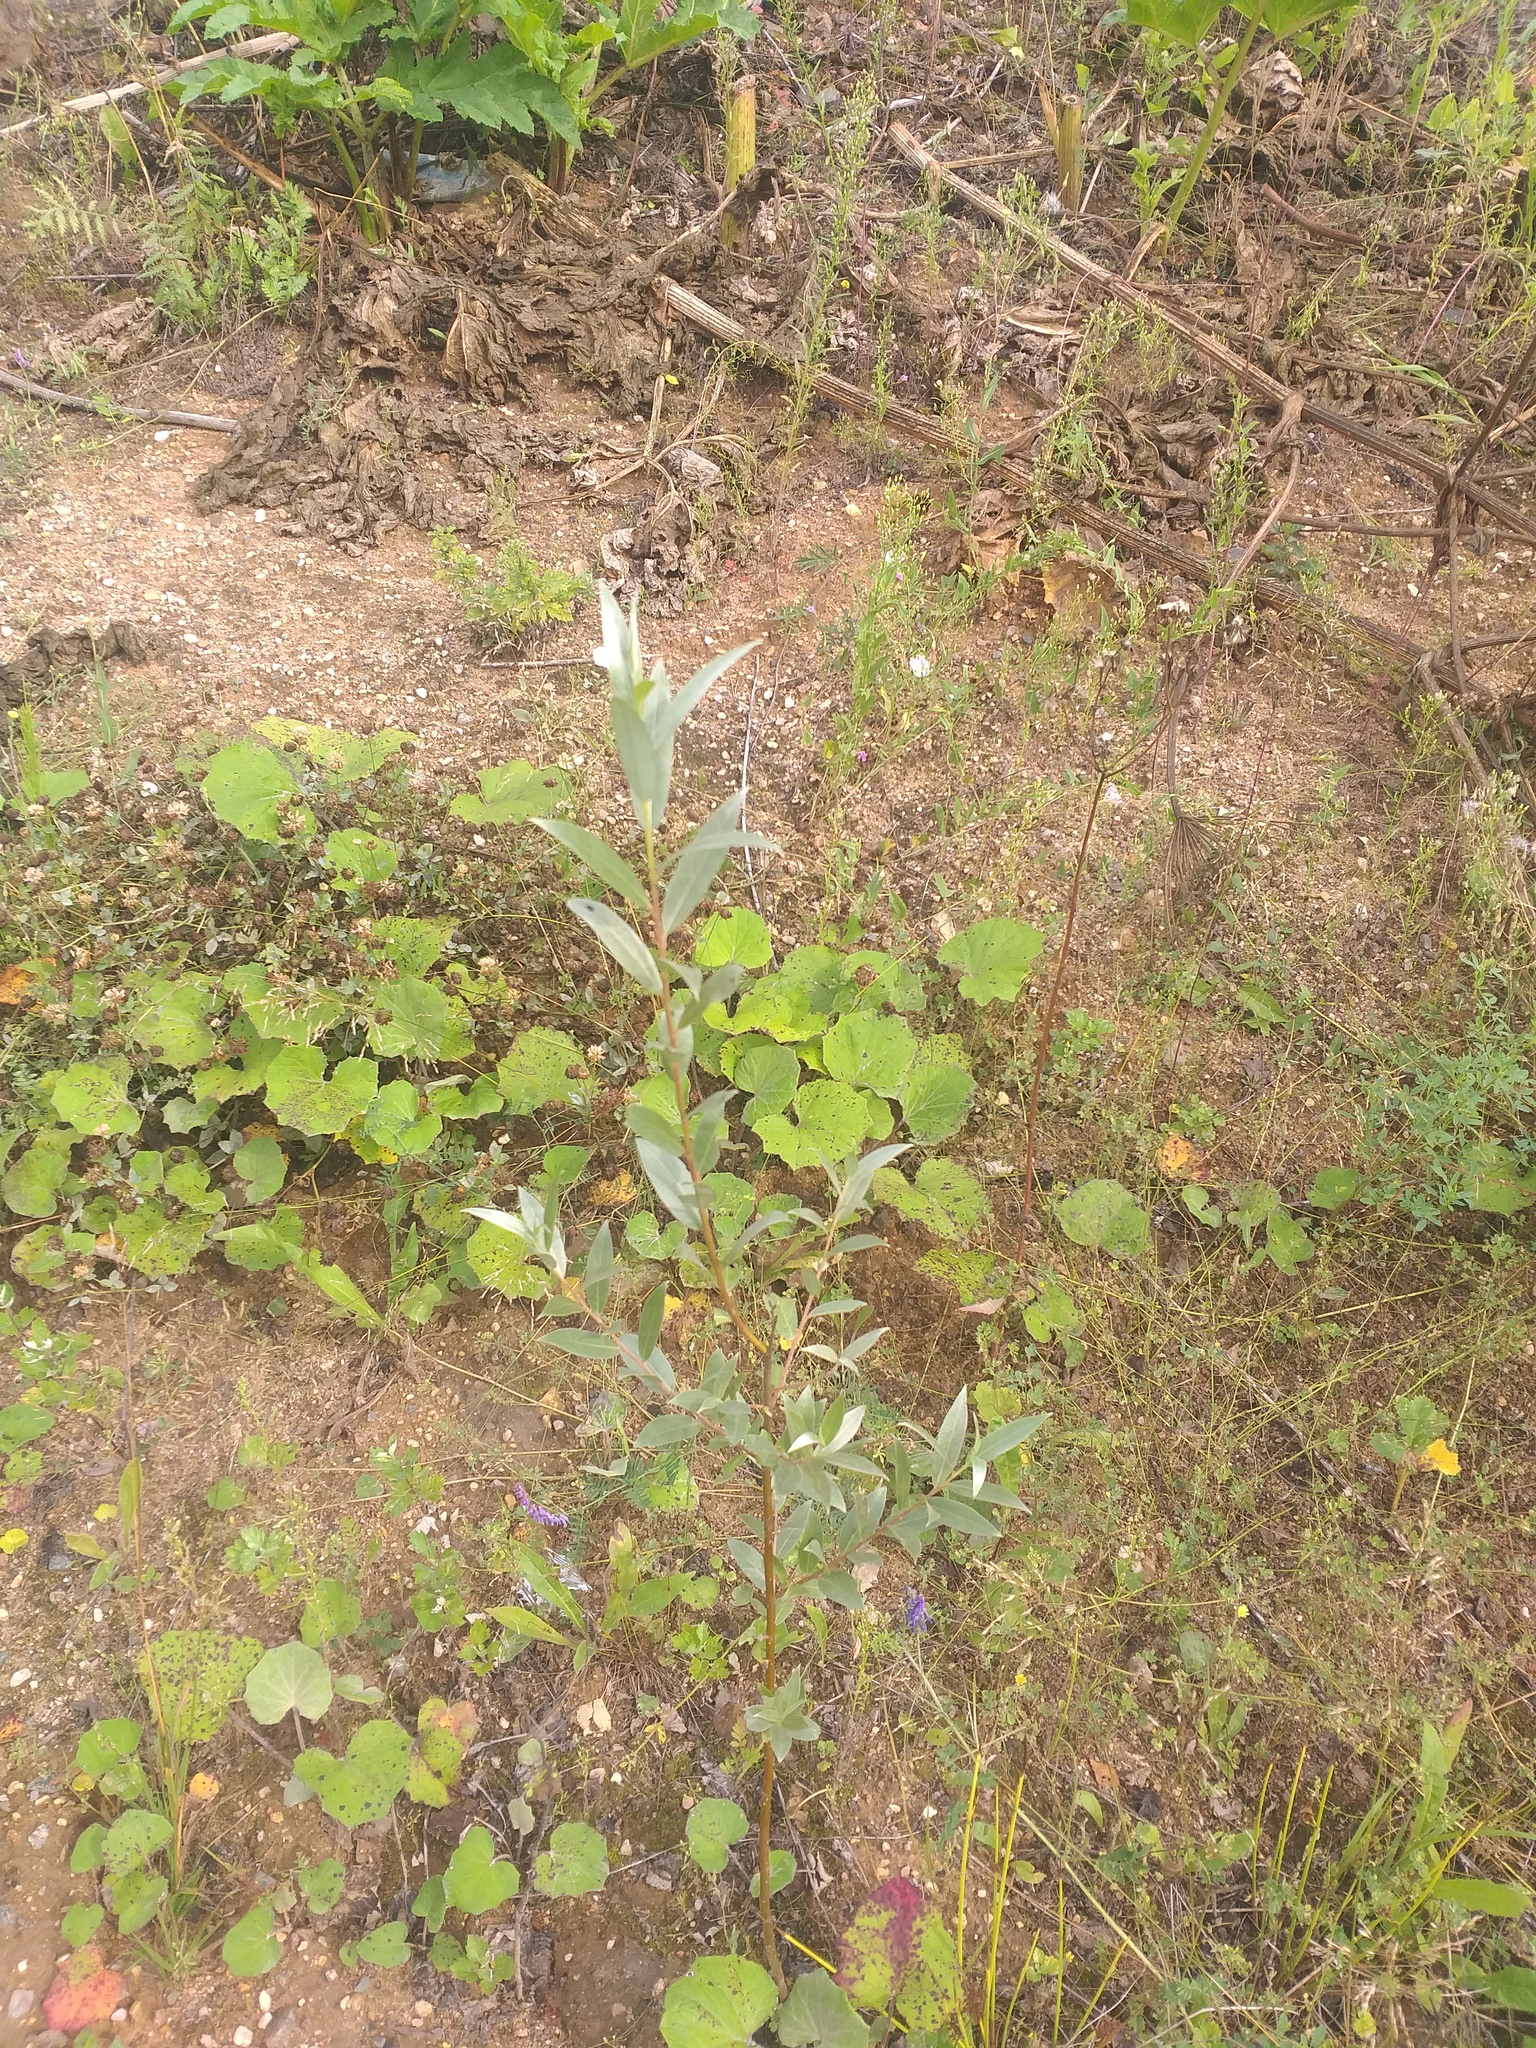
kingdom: Plantae
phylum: Tracheophyta
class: Magnoliopsida
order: Malpighiales
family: Salicaceae
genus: Salix
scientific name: Salix alba
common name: White willow
